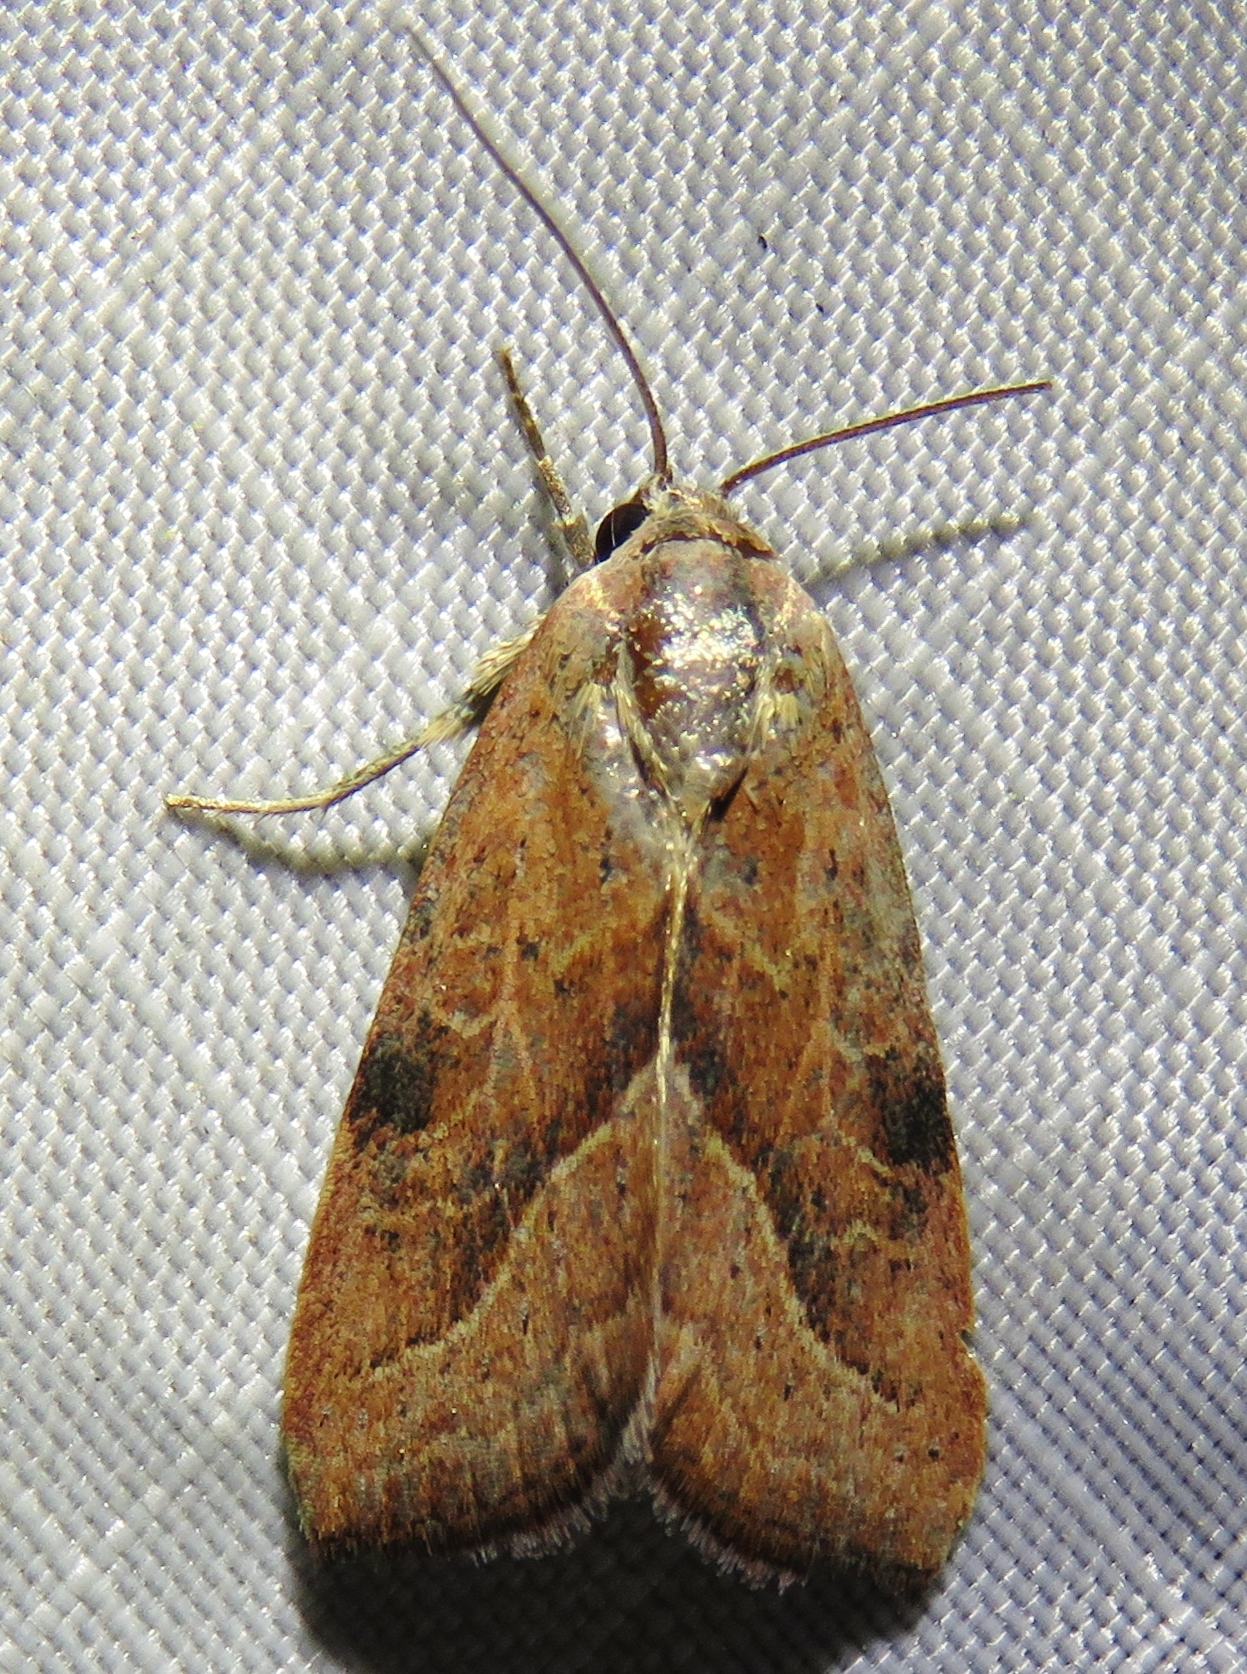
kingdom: Animalia
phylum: Arthropoda
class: Insecta
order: Lepidoptera
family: Noctuidae
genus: Galgula
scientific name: Galgula partita
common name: Wedgeling
